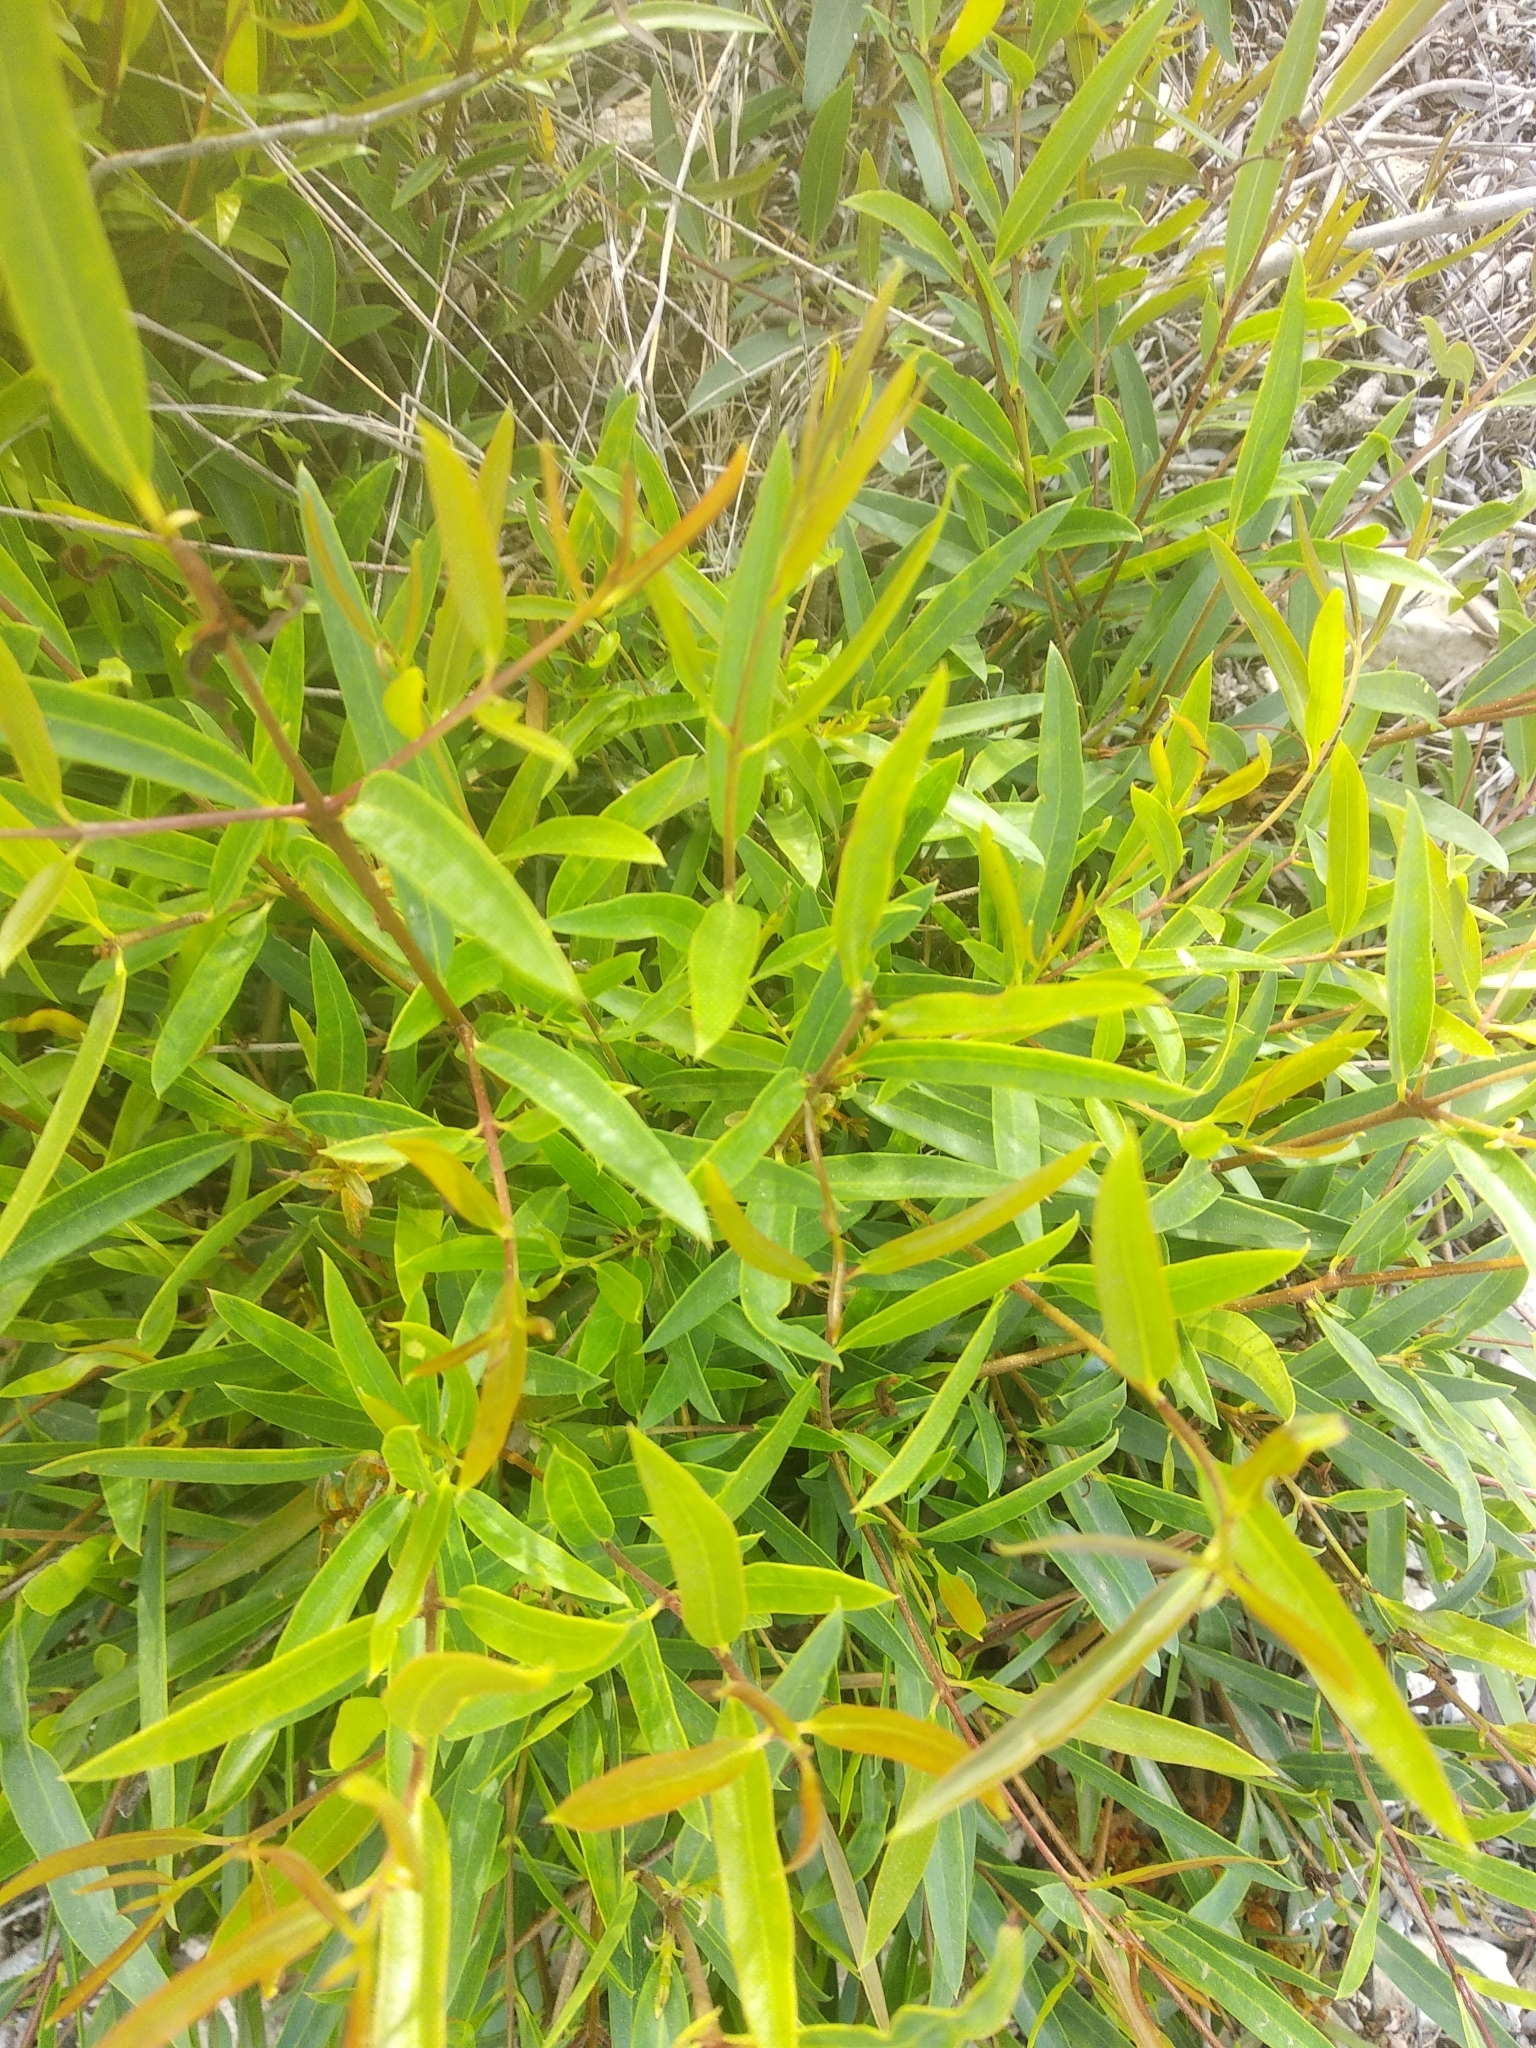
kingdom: Plantae
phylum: Tracheophyta
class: Magnoliopsida
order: Lamiales
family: Oleaceae
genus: Phillyrea
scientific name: Phillyrea angustifolia
